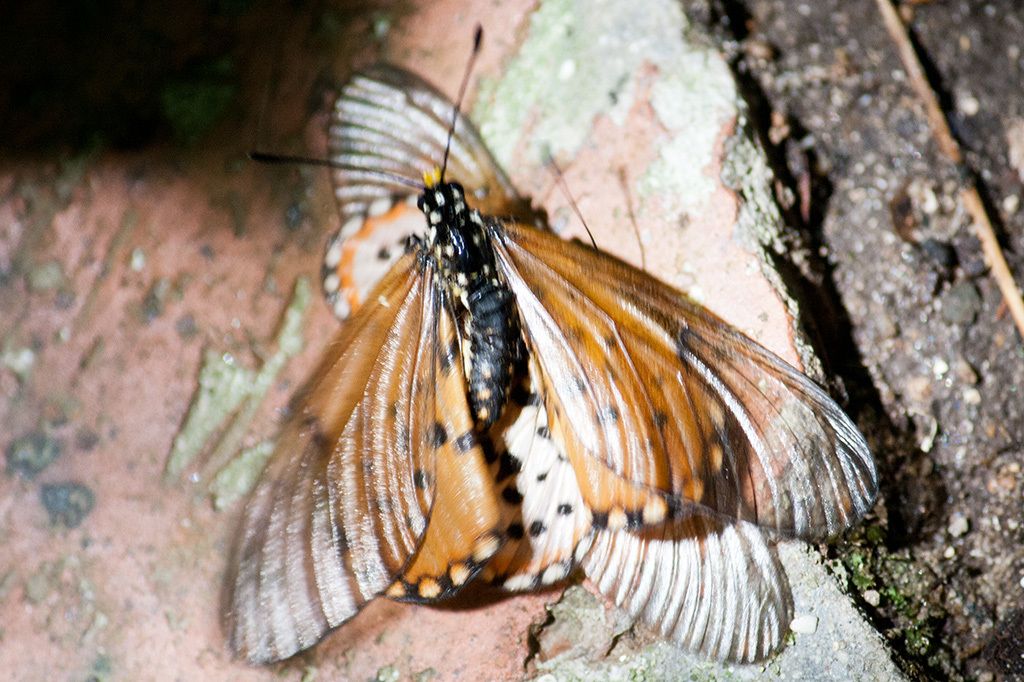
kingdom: Animalia
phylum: Arthropoda
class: Insecta
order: Lepidoptera
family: Nymphalidae
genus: Acraea
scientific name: Acraea horta
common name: Garden acraea
